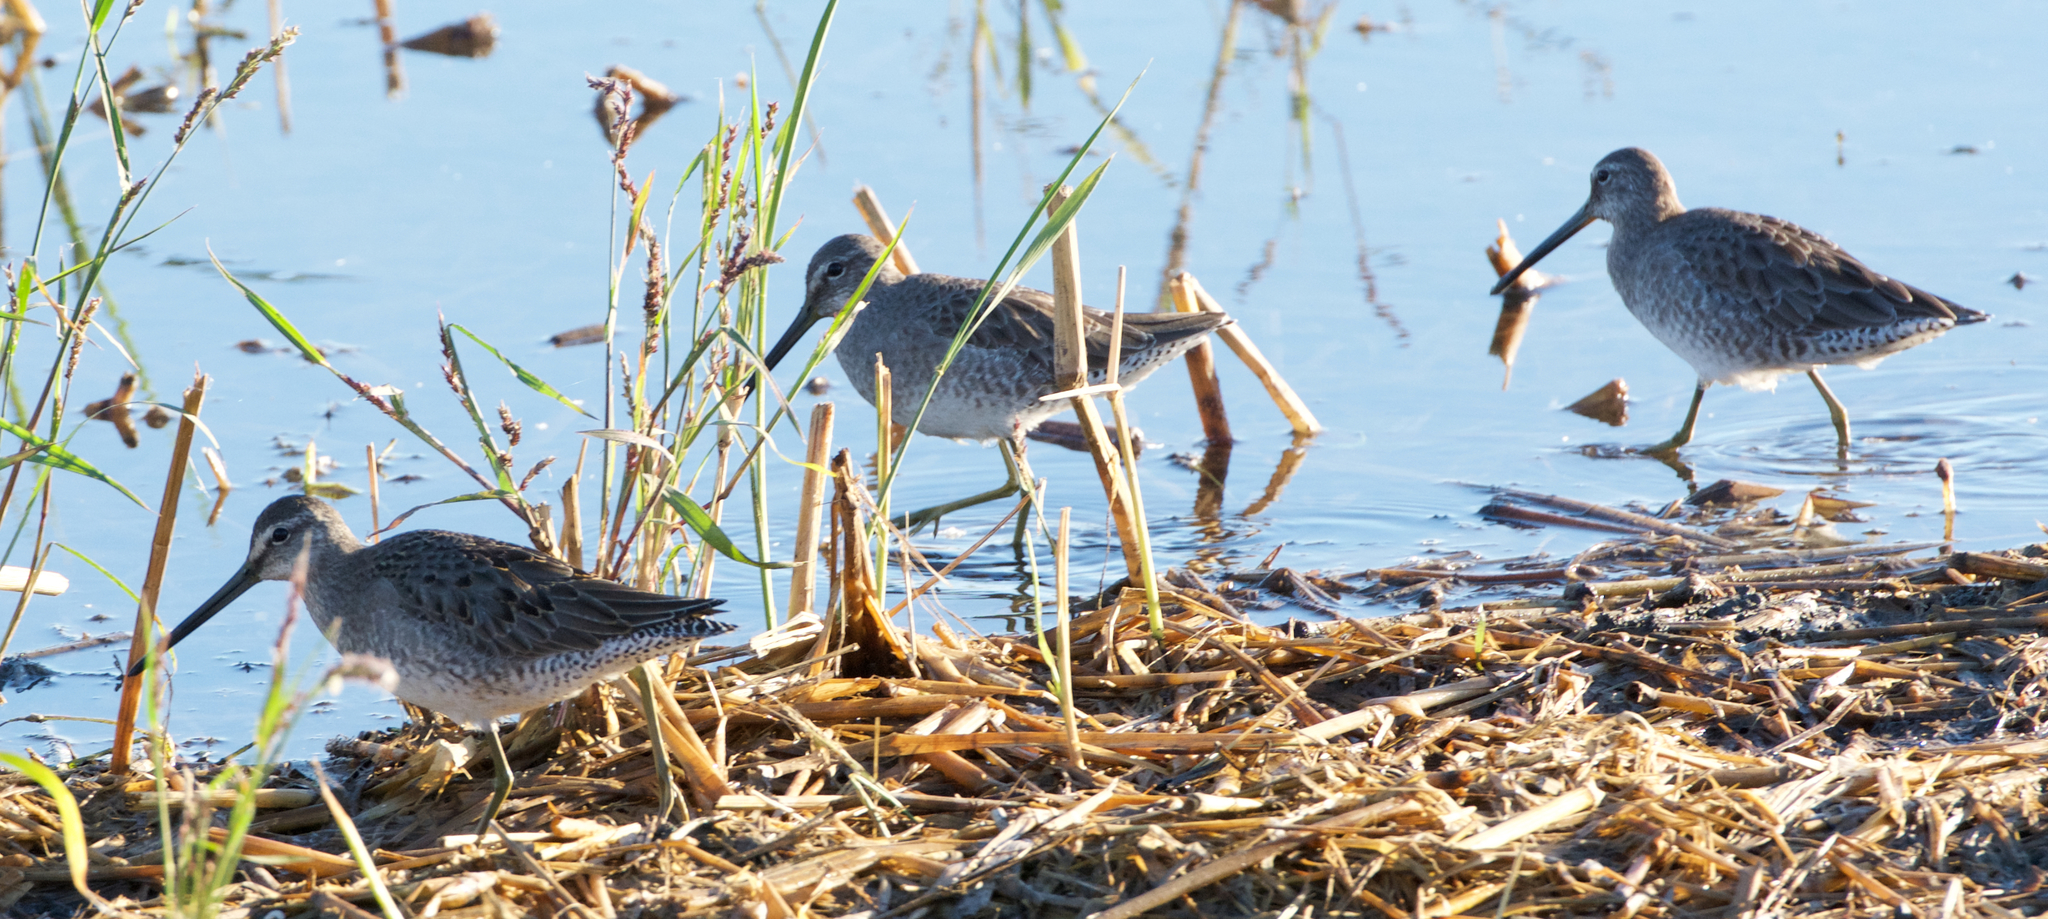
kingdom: Animalia
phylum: Chordata
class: Aves
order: Charadriiformes
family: Scolopacidae
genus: Limnodromus
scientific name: Limnodromus scolopaceus
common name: Long-billed dowitcher
